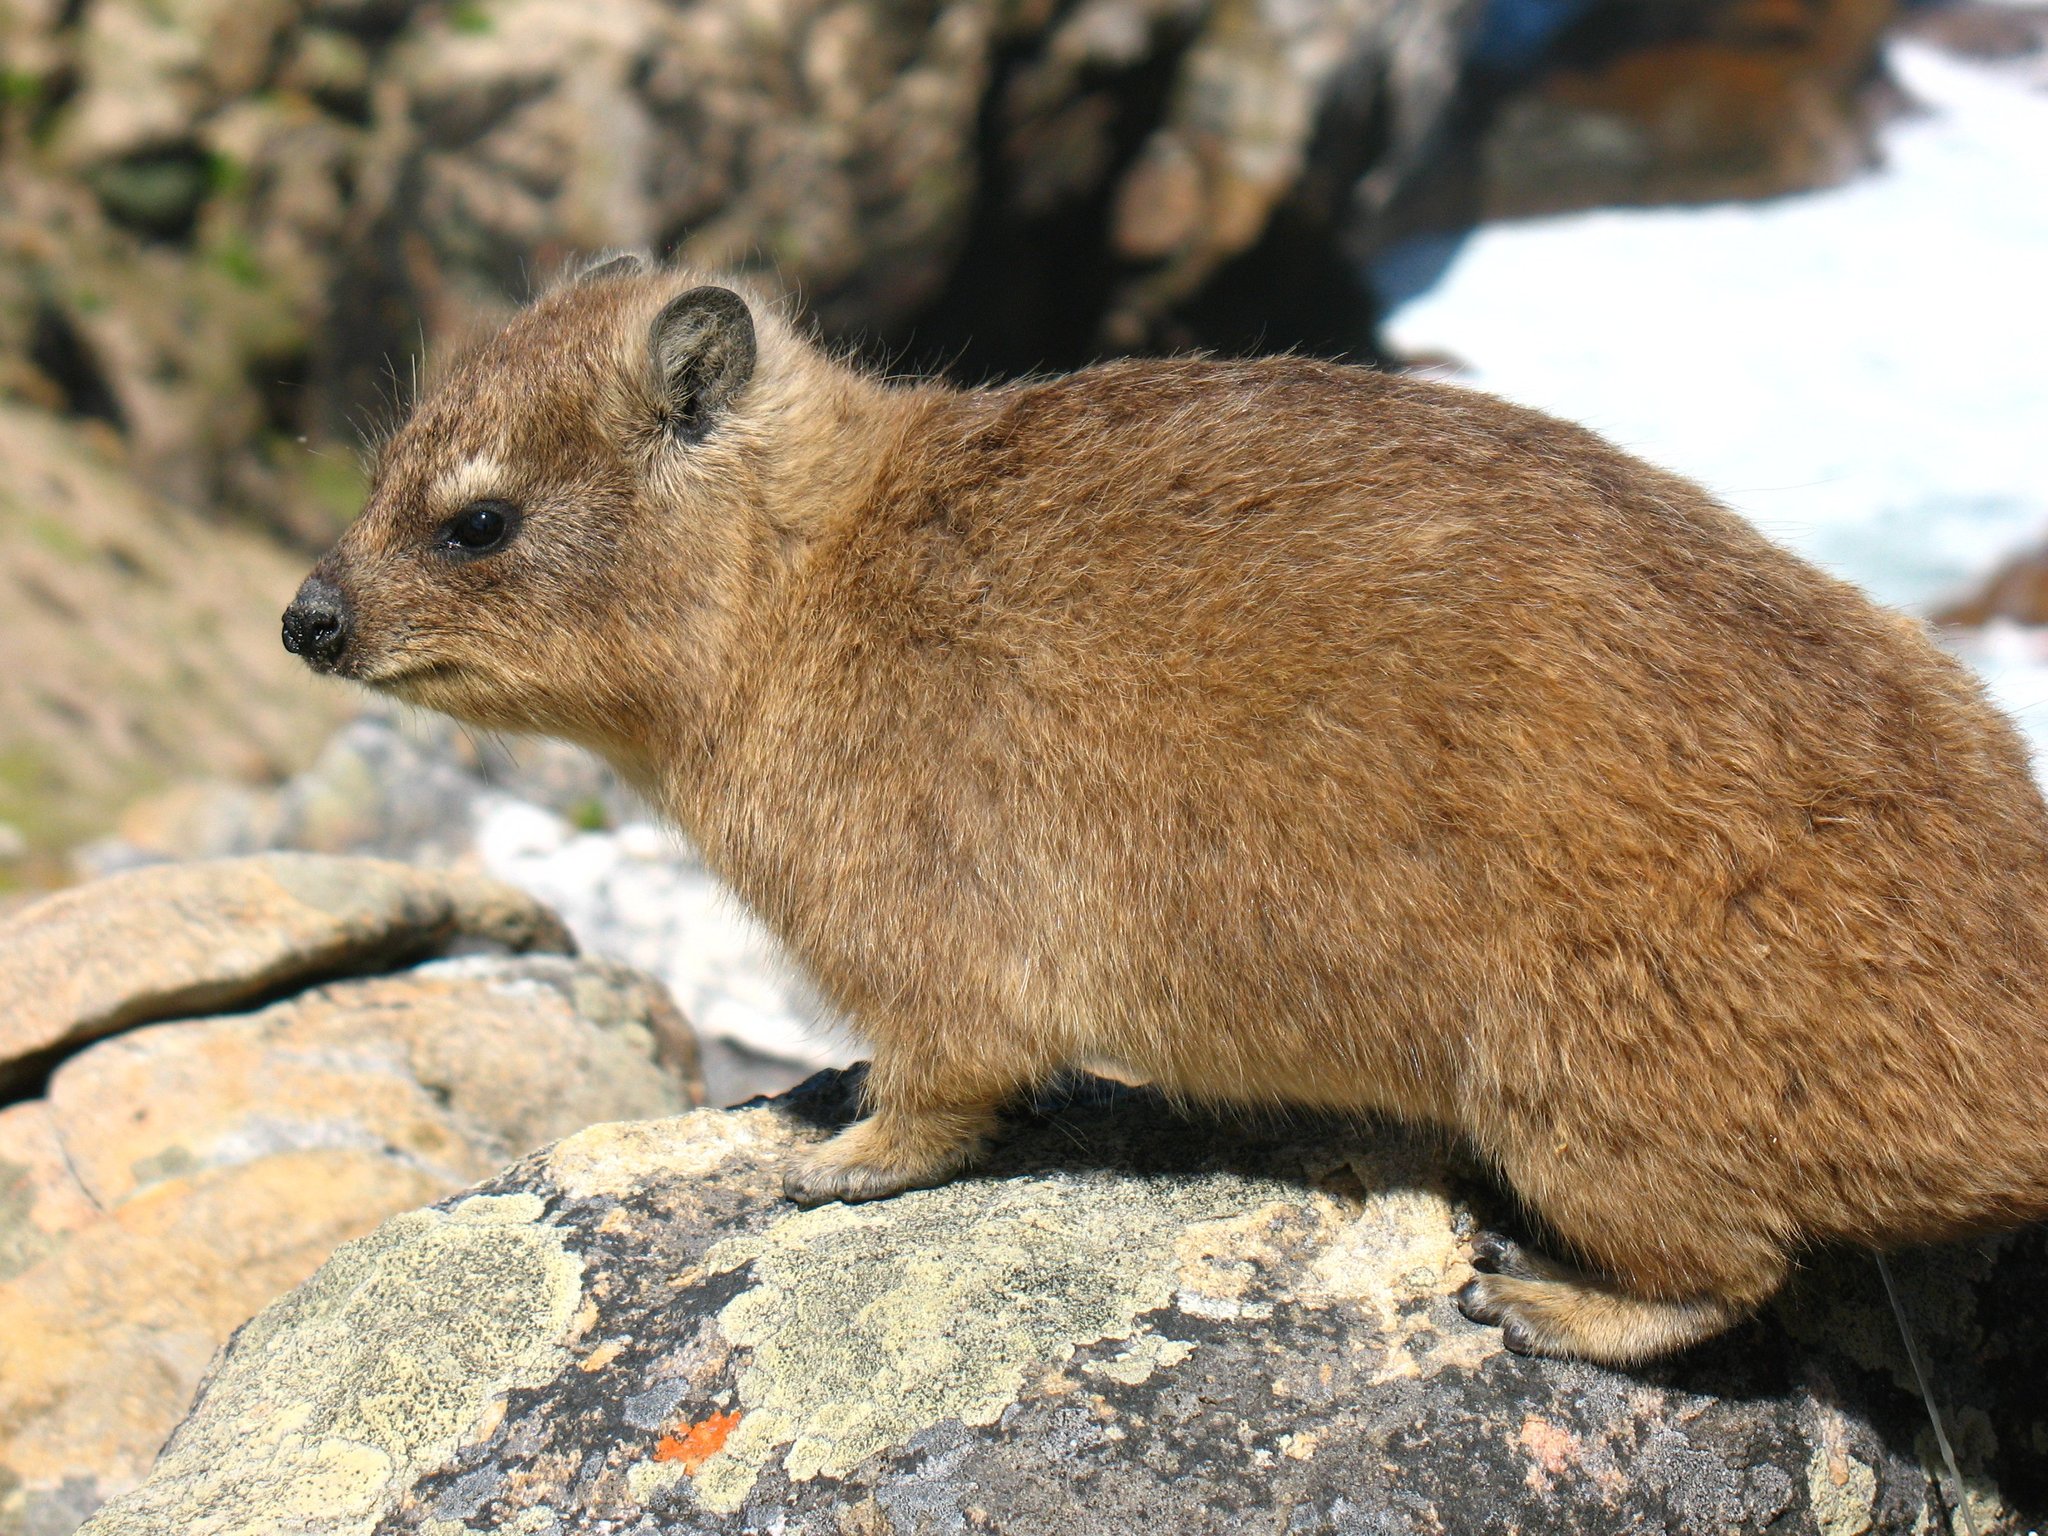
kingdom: Animalia
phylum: Chordata
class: Mammalia
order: Hyracoidea
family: Procaviidae
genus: Procavia
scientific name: Procavia capensis
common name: Rock hyrax
